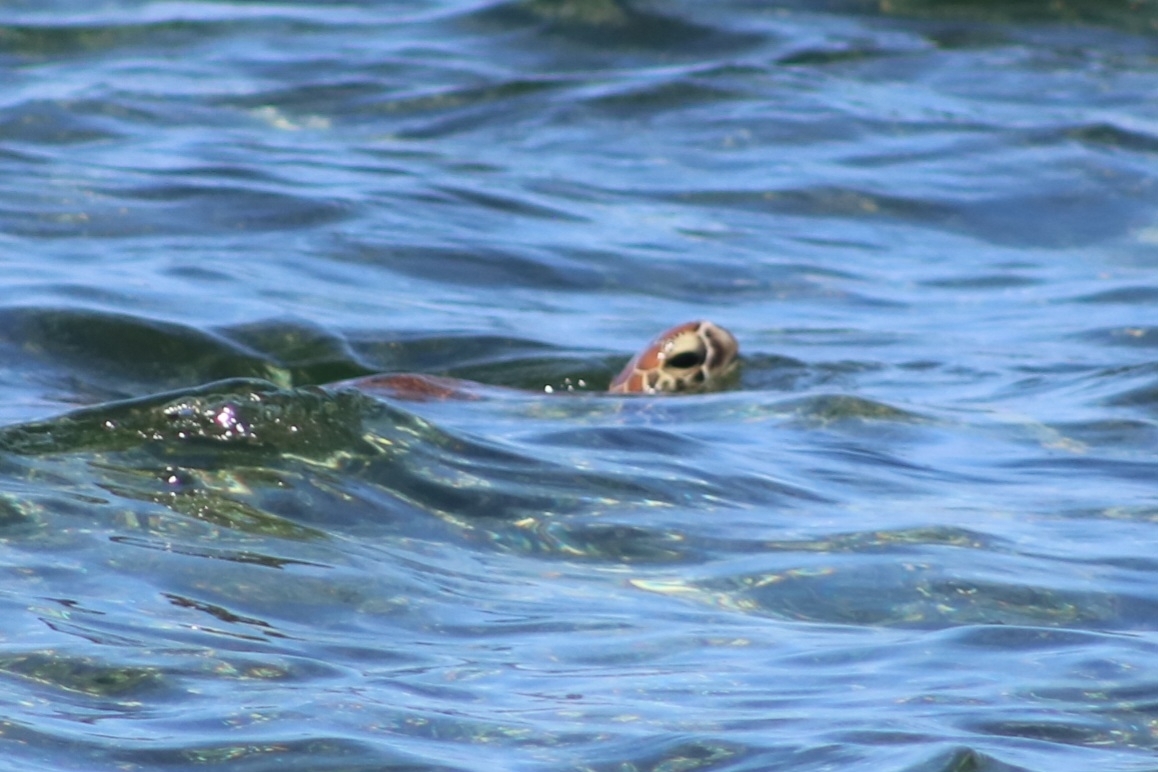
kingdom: Animalia
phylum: Chordata
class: Testudines
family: Cheloniidae
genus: Chelonia
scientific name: Chelonia mydas
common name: Green turtle
